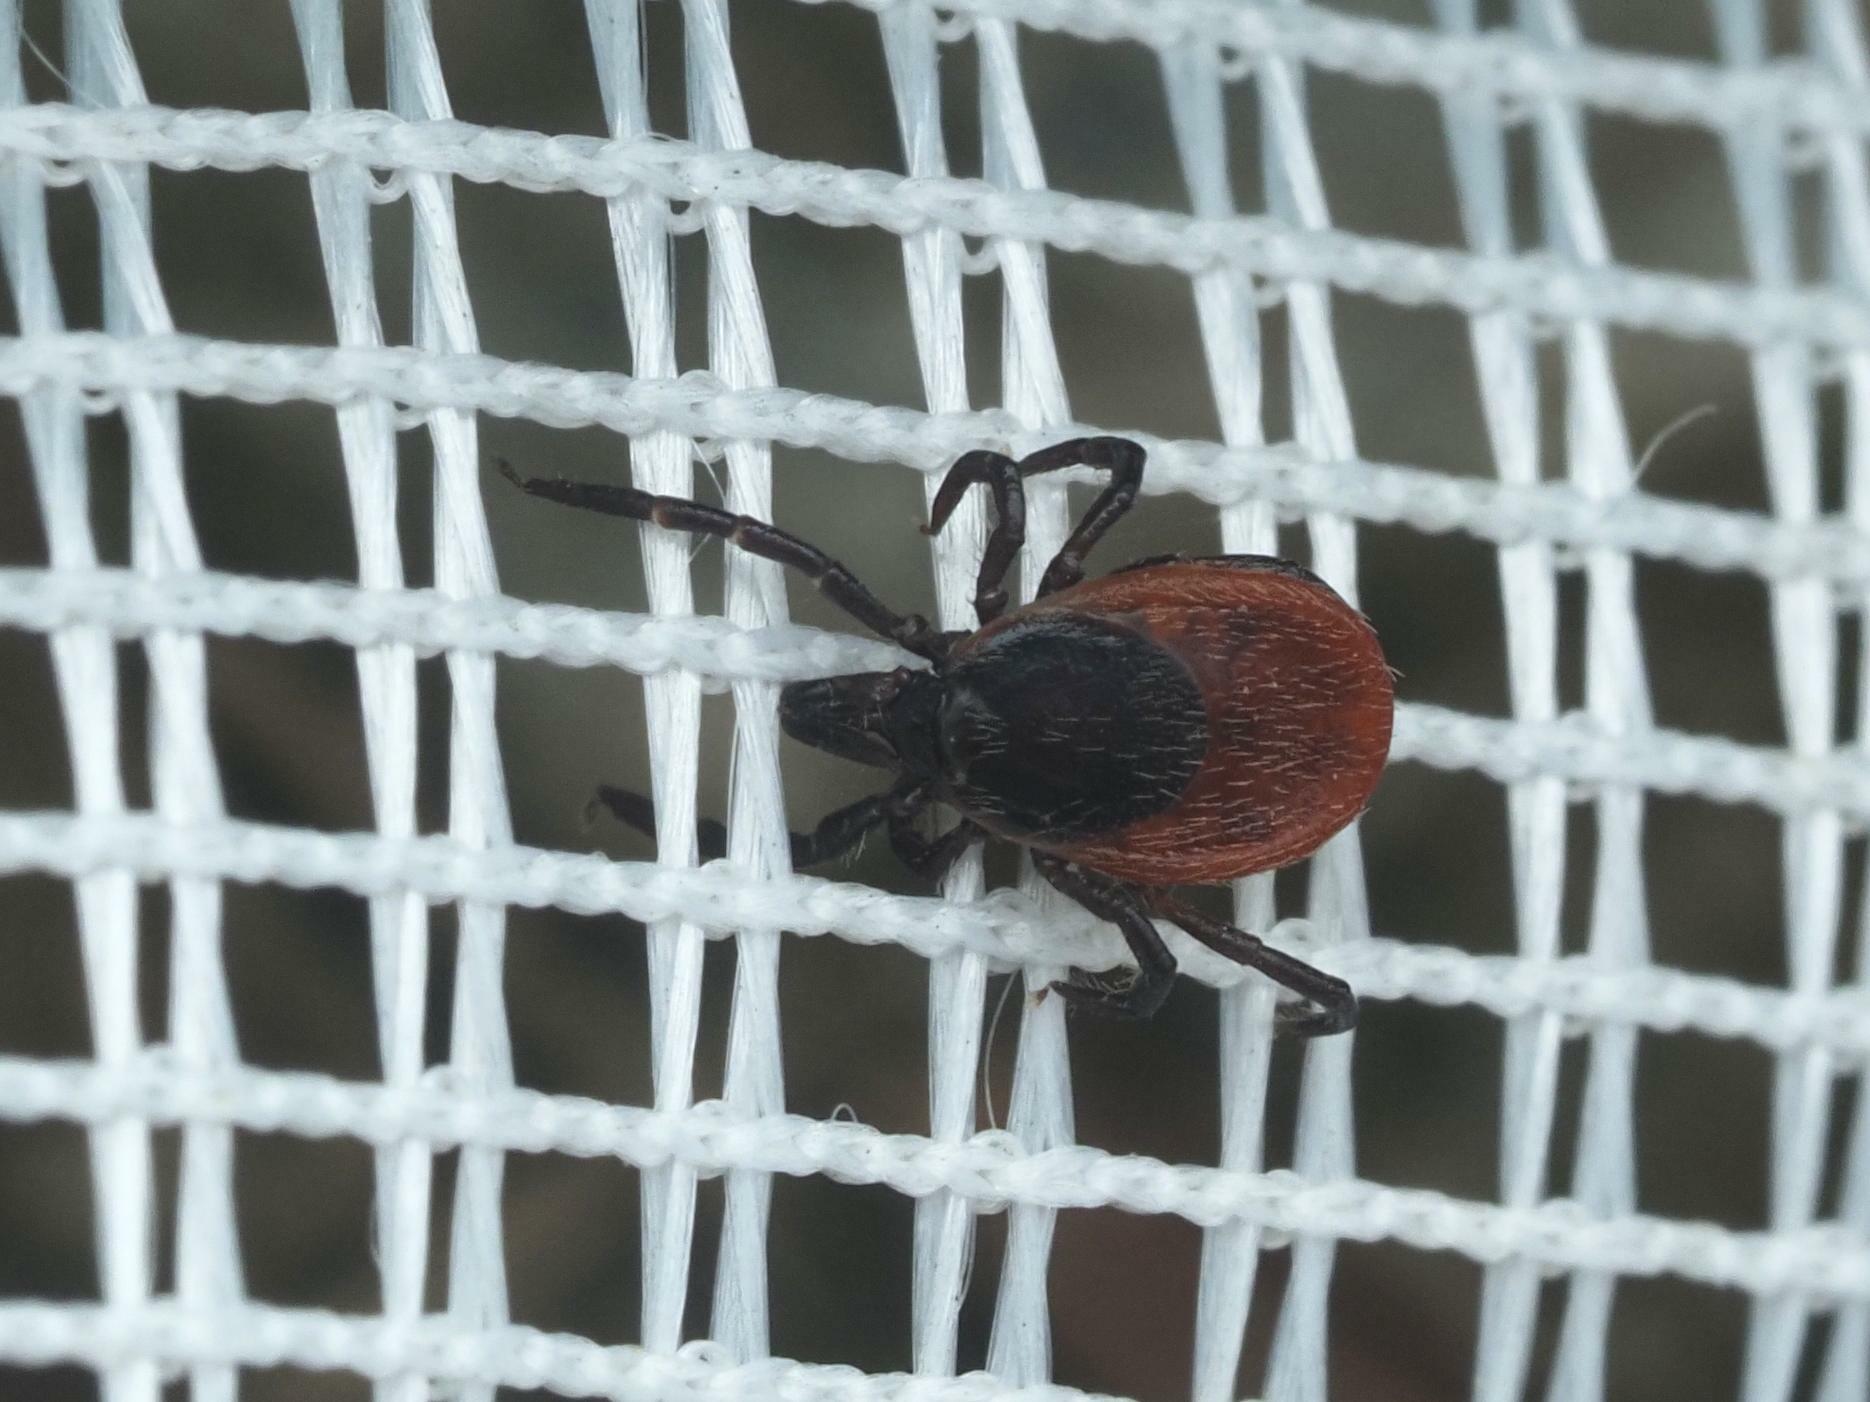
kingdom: Animalia
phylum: Arthropoda
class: Arachnida
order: Ixodida
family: Ixodidae
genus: Ixodes
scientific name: Ixodes ricinus
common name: Castor bean tick
